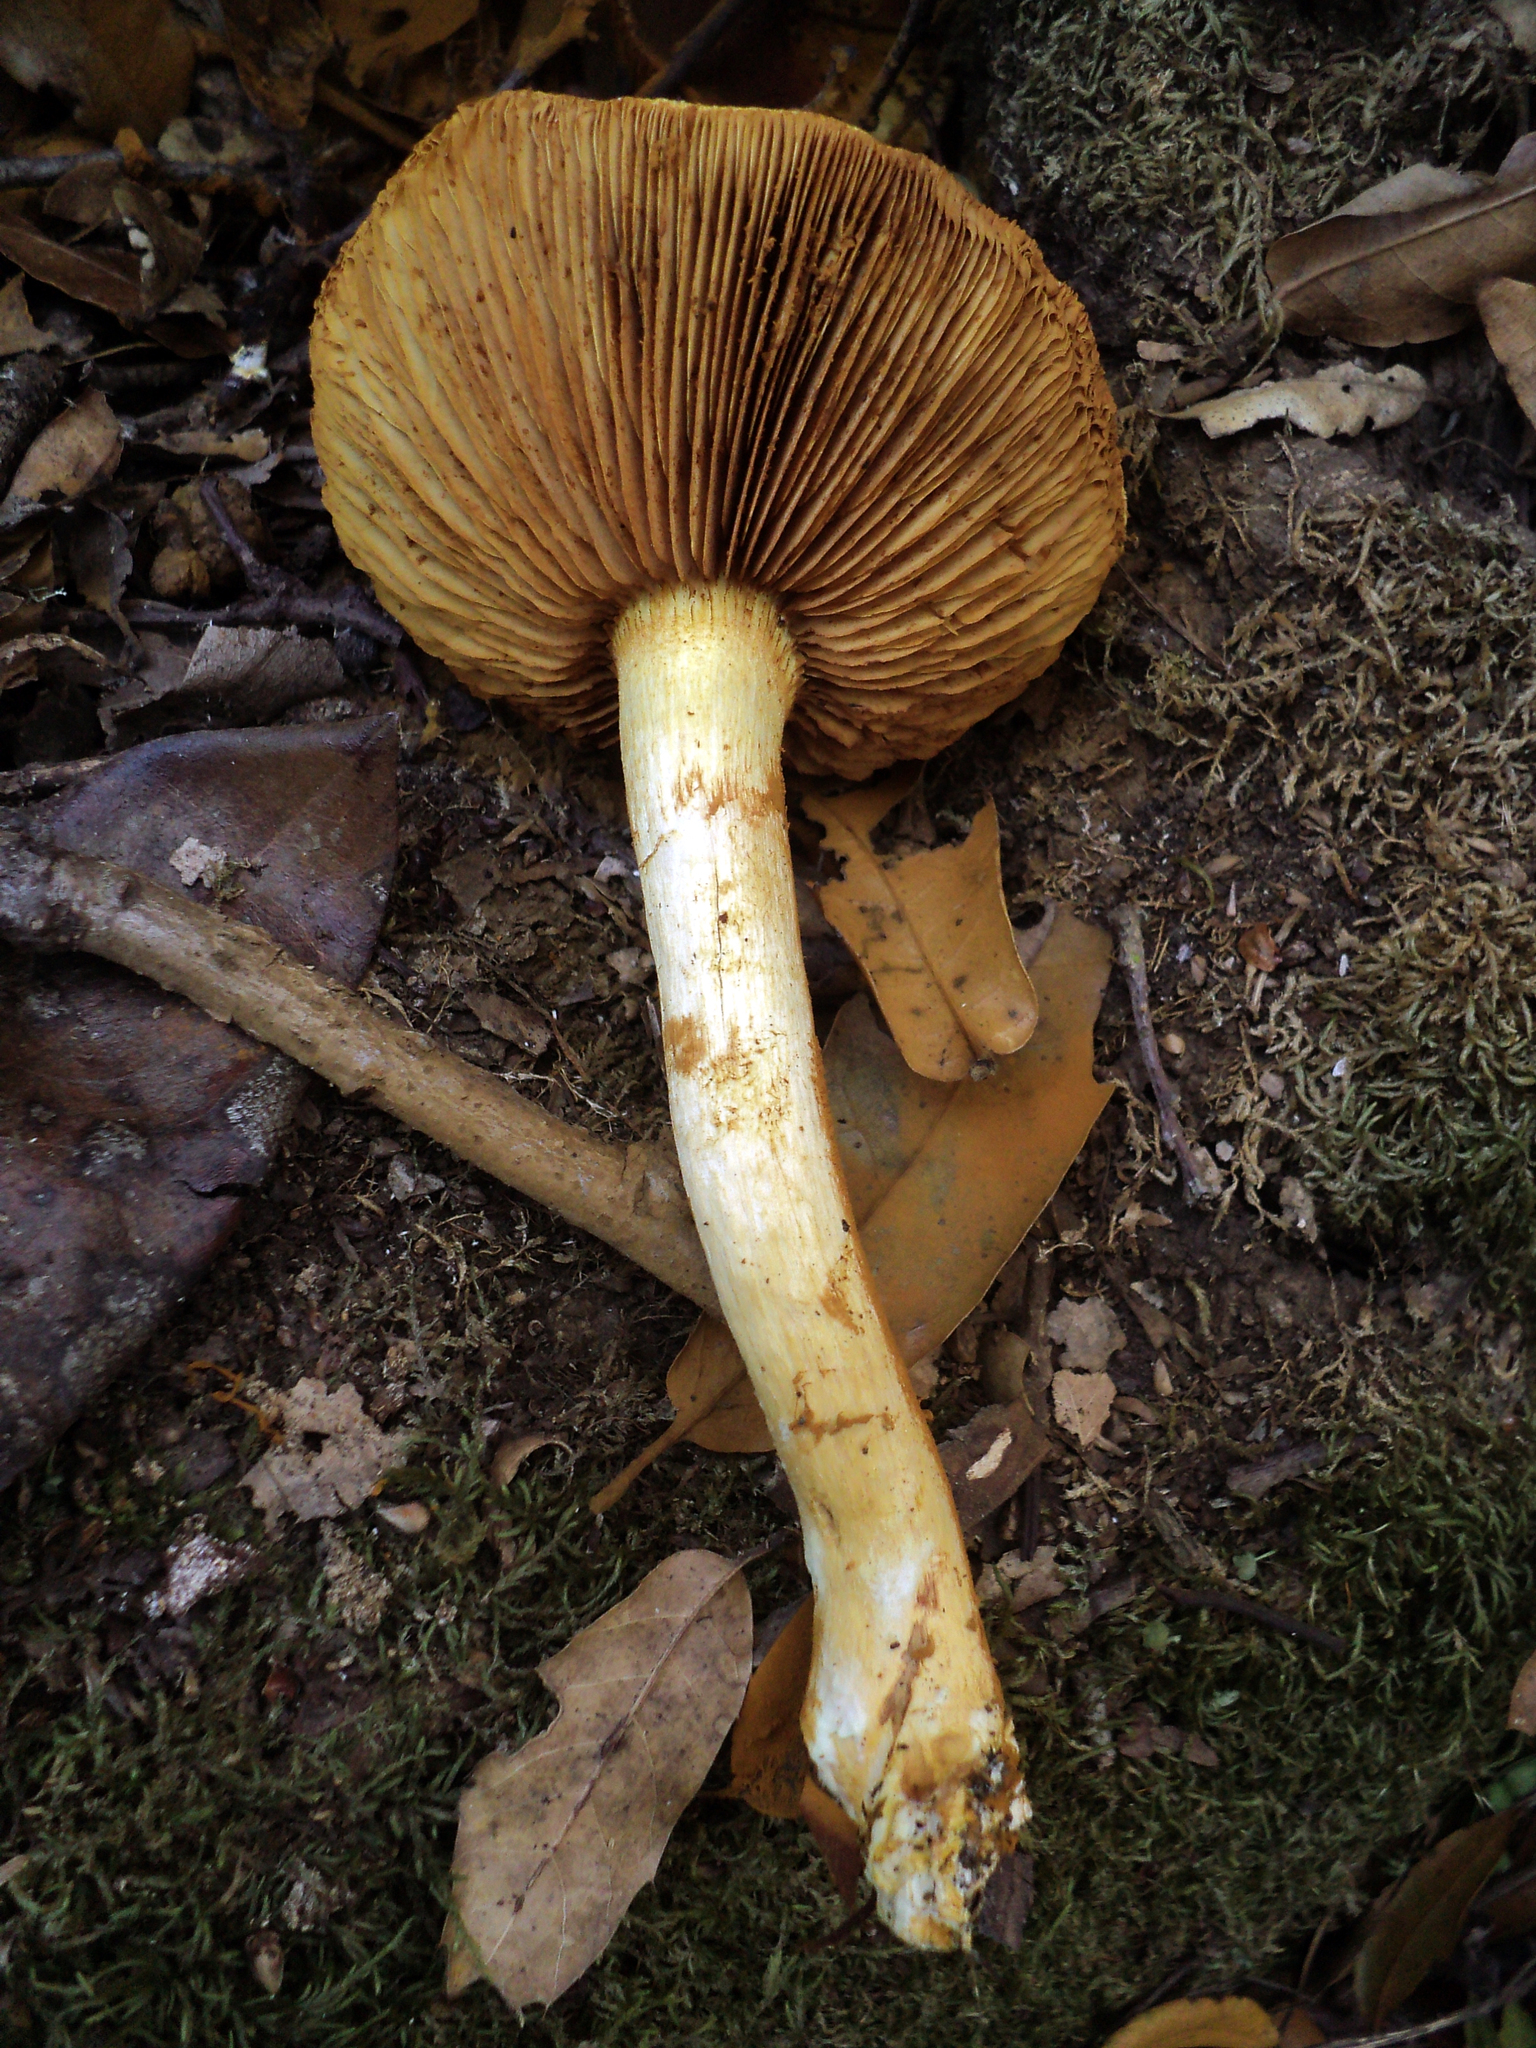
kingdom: Fungi
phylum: Basidiomycota
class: Agaricomycetes
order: Agaricales
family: Hymenogastraceae
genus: Gymnopilus
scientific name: Gymnopilus ventricosus
